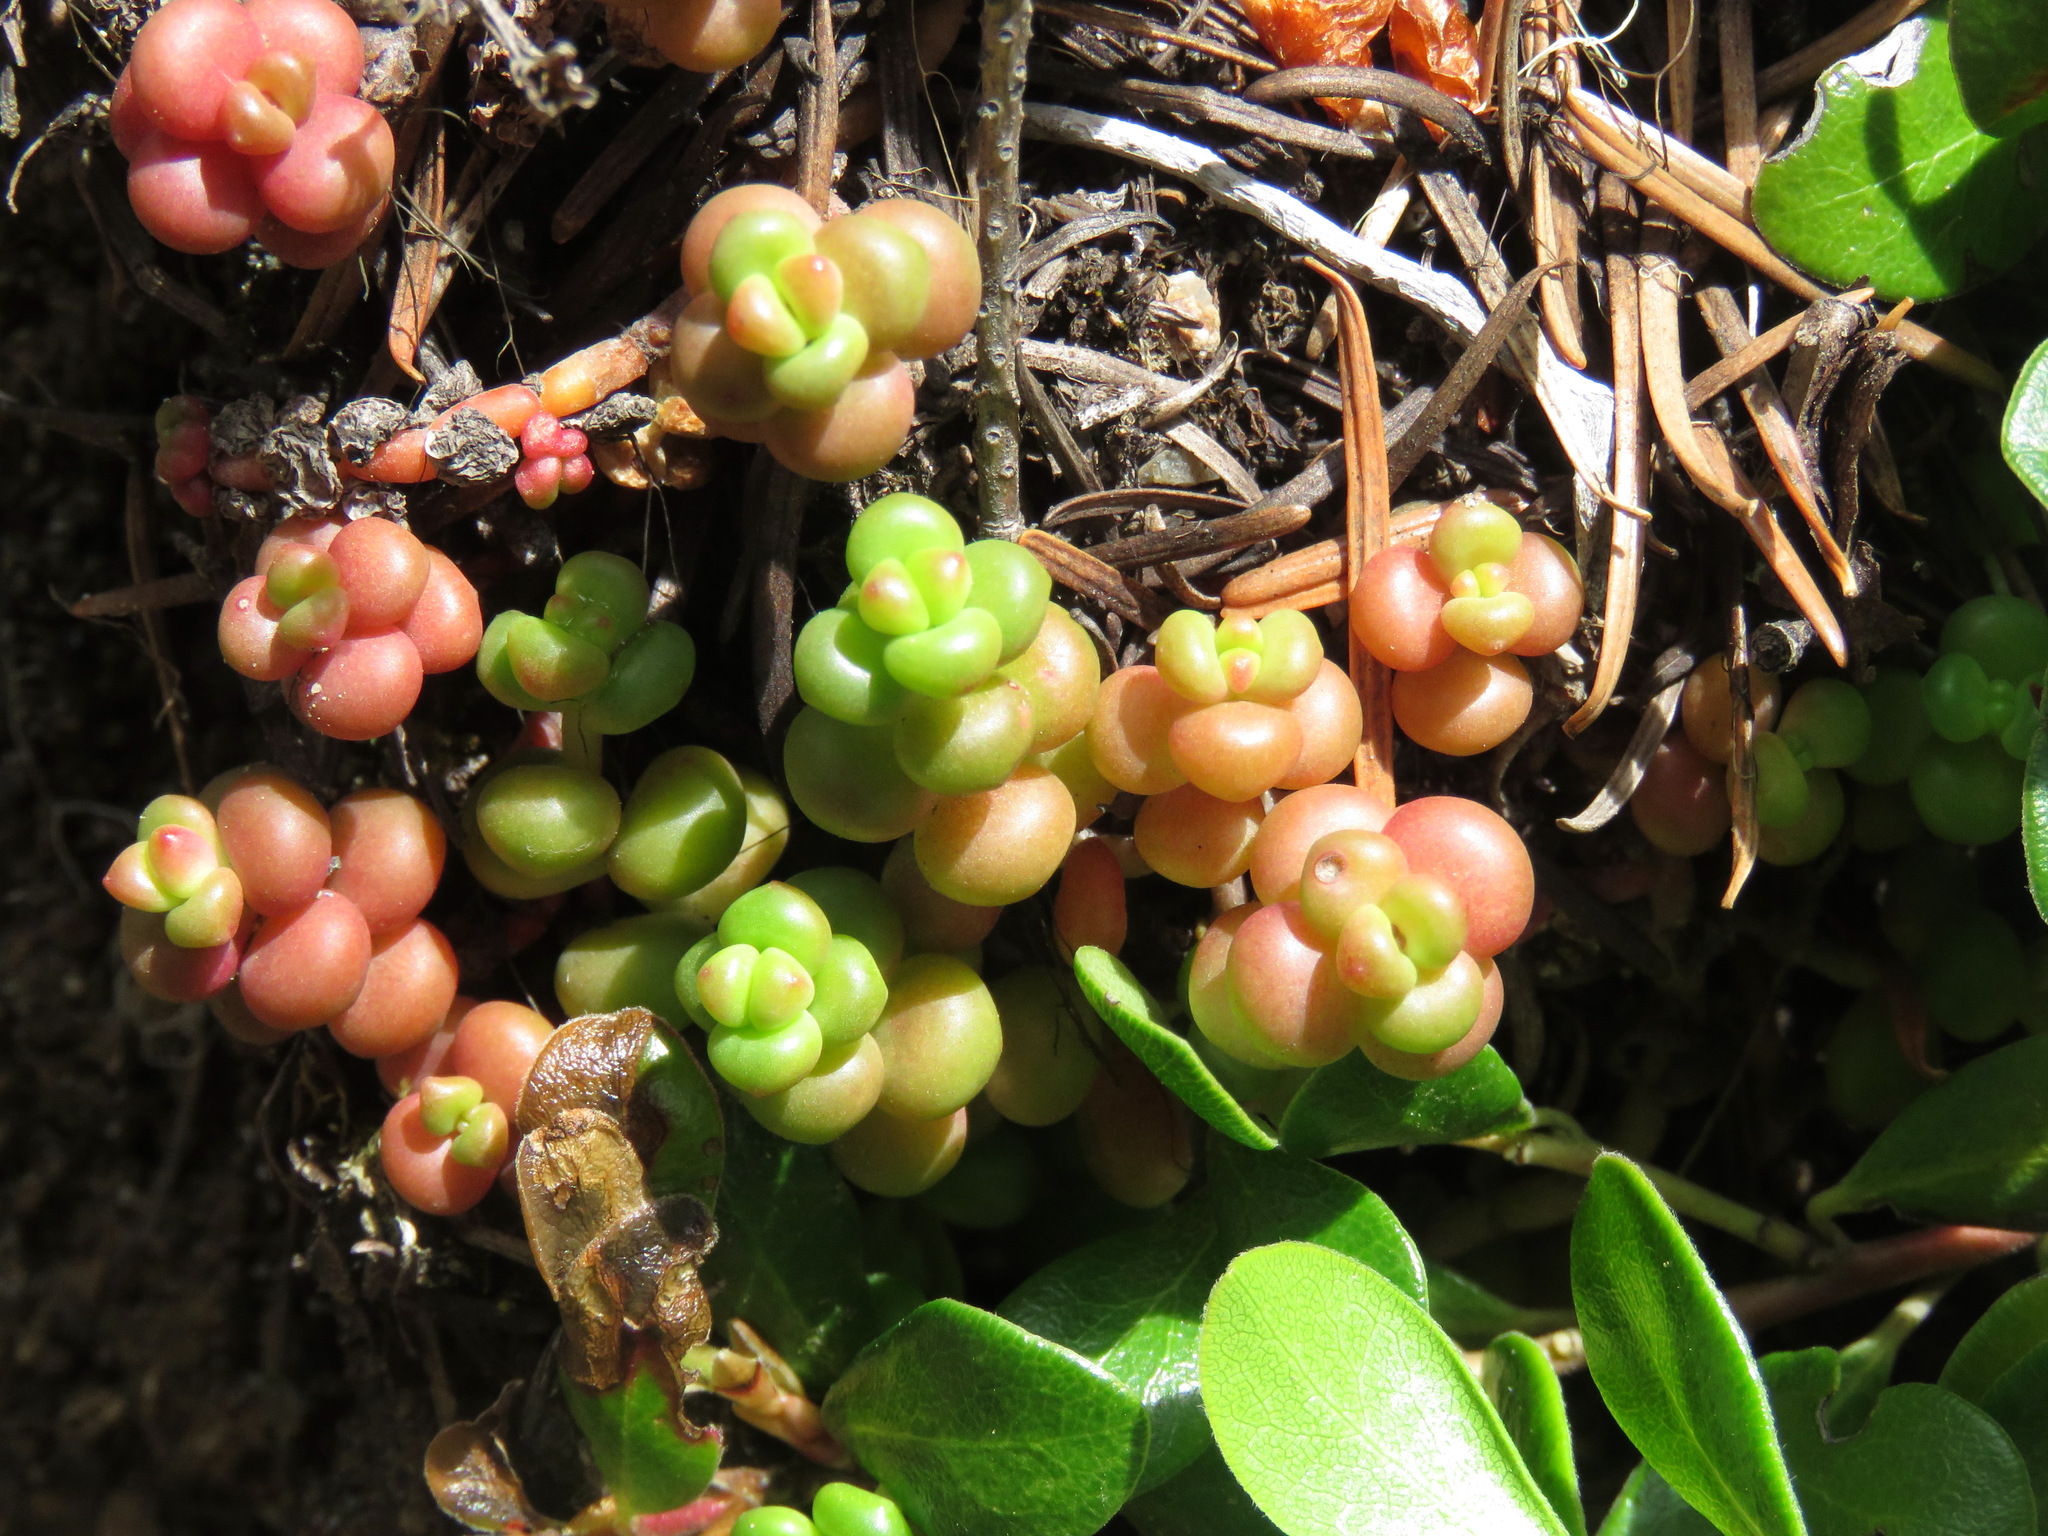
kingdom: Plantae
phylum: Tracheophyta
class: Magnoliopsida
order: Saxifragales
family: Crassulaceae
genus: Sedum
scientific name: Sedum divergens
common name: Cascade stonecrop
